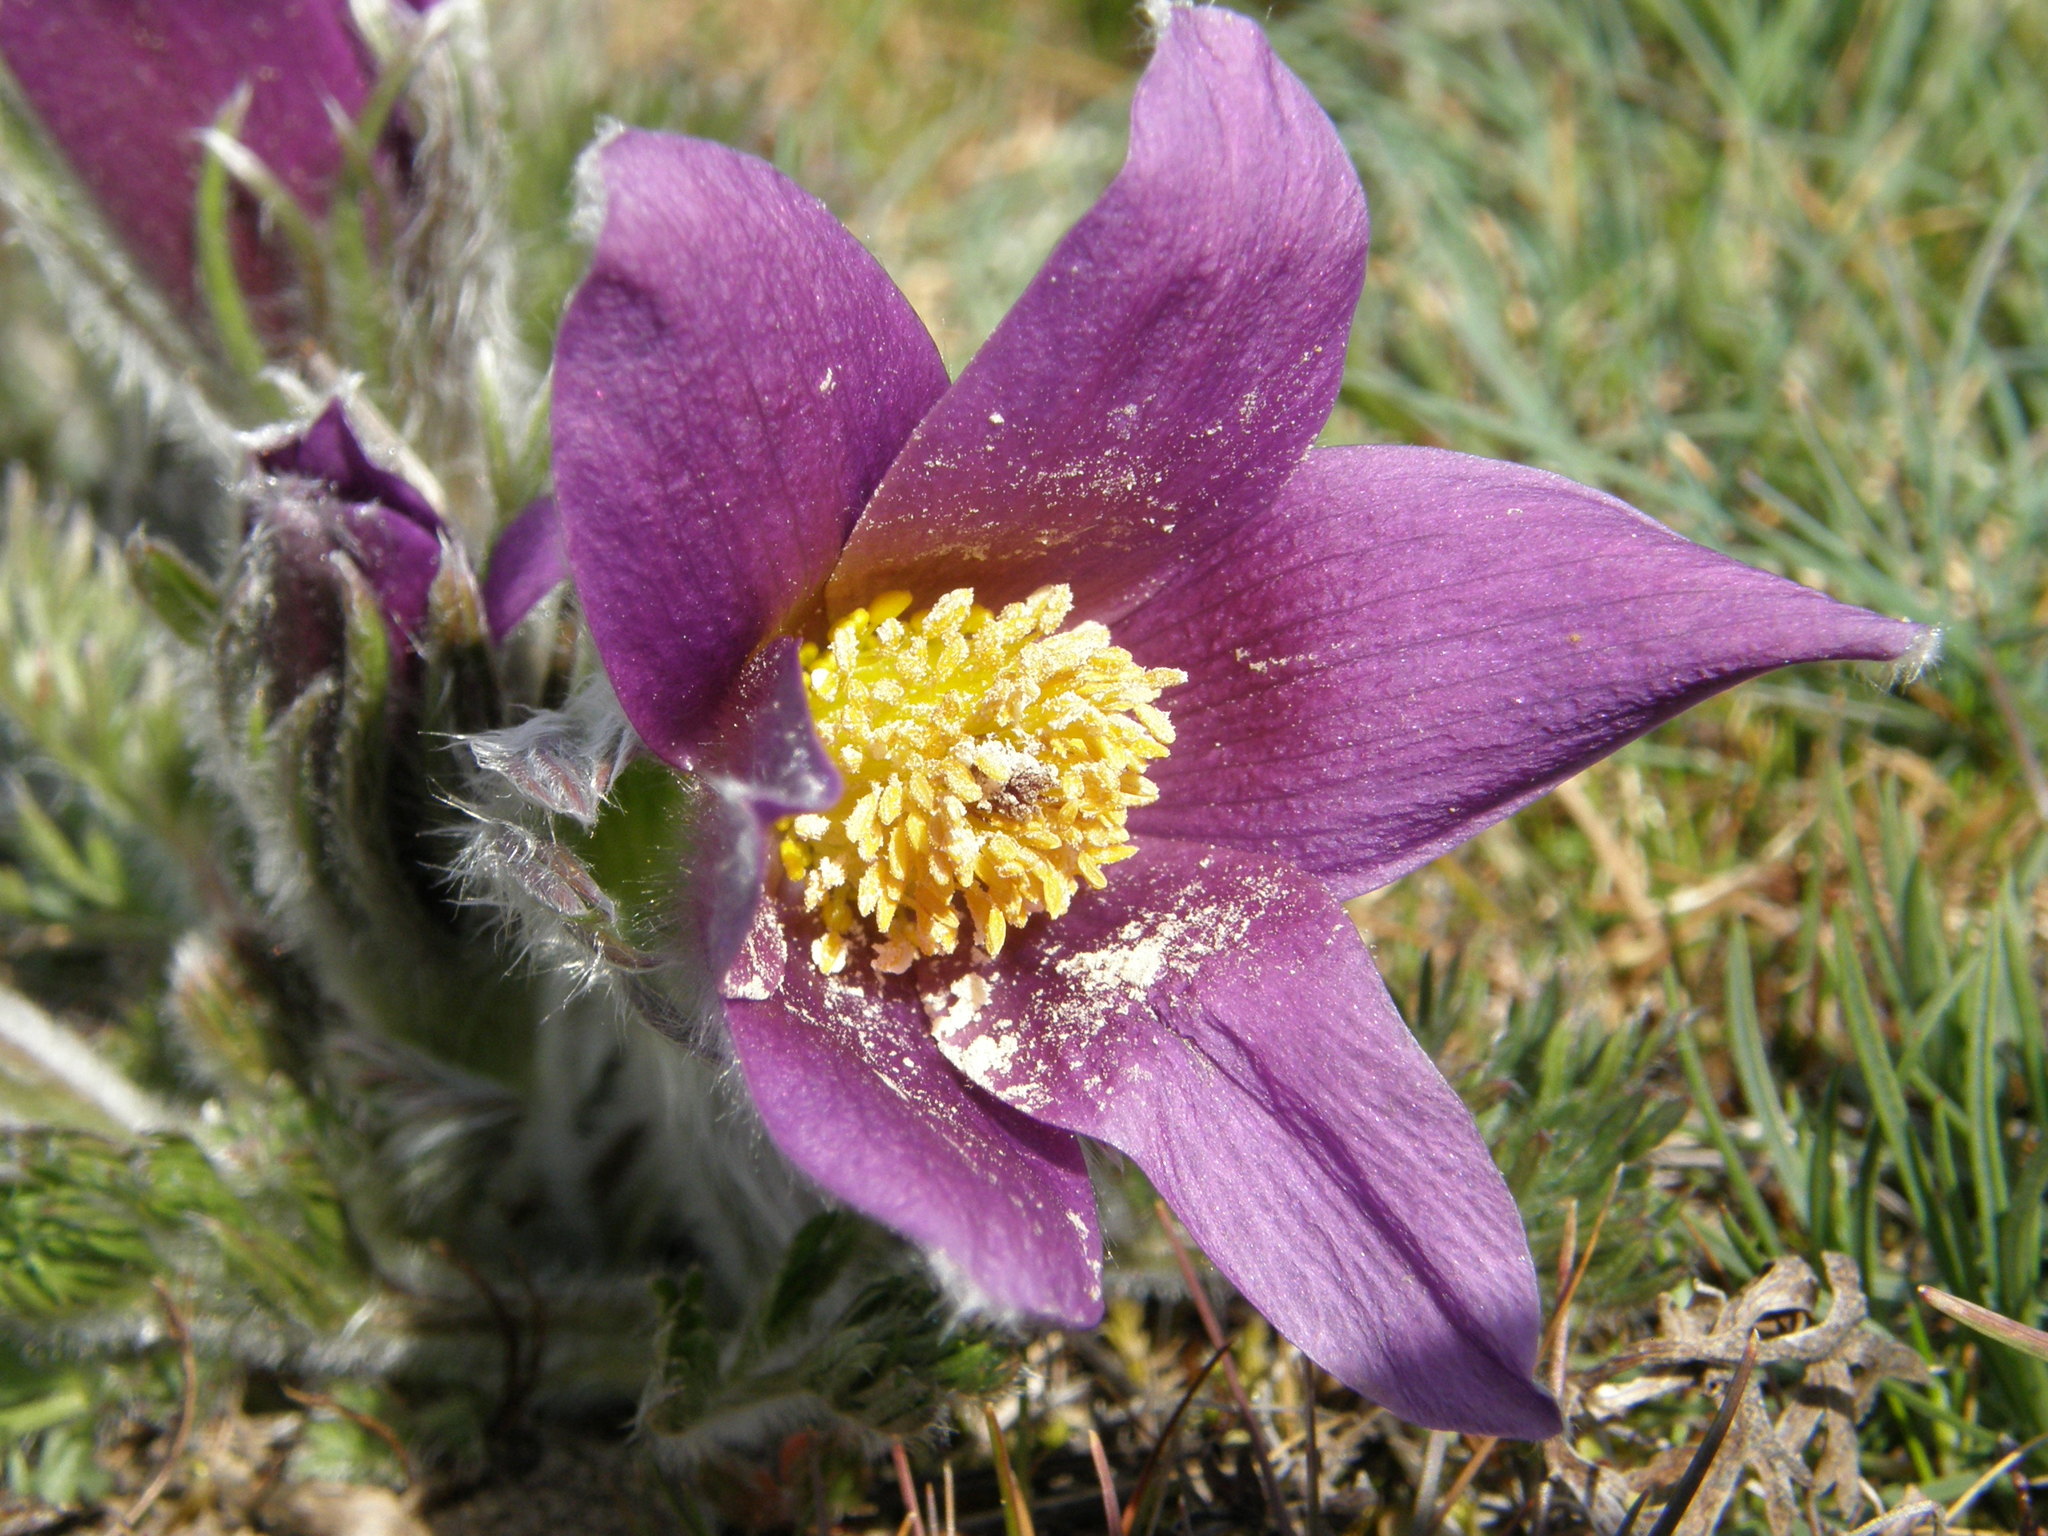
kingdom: Plantae
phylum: Tracheophyta
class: Magnoliopsida
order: Ranunculales
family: Ranunculaceae
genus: Pulsatilla
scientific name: Pulsatilla rubra
